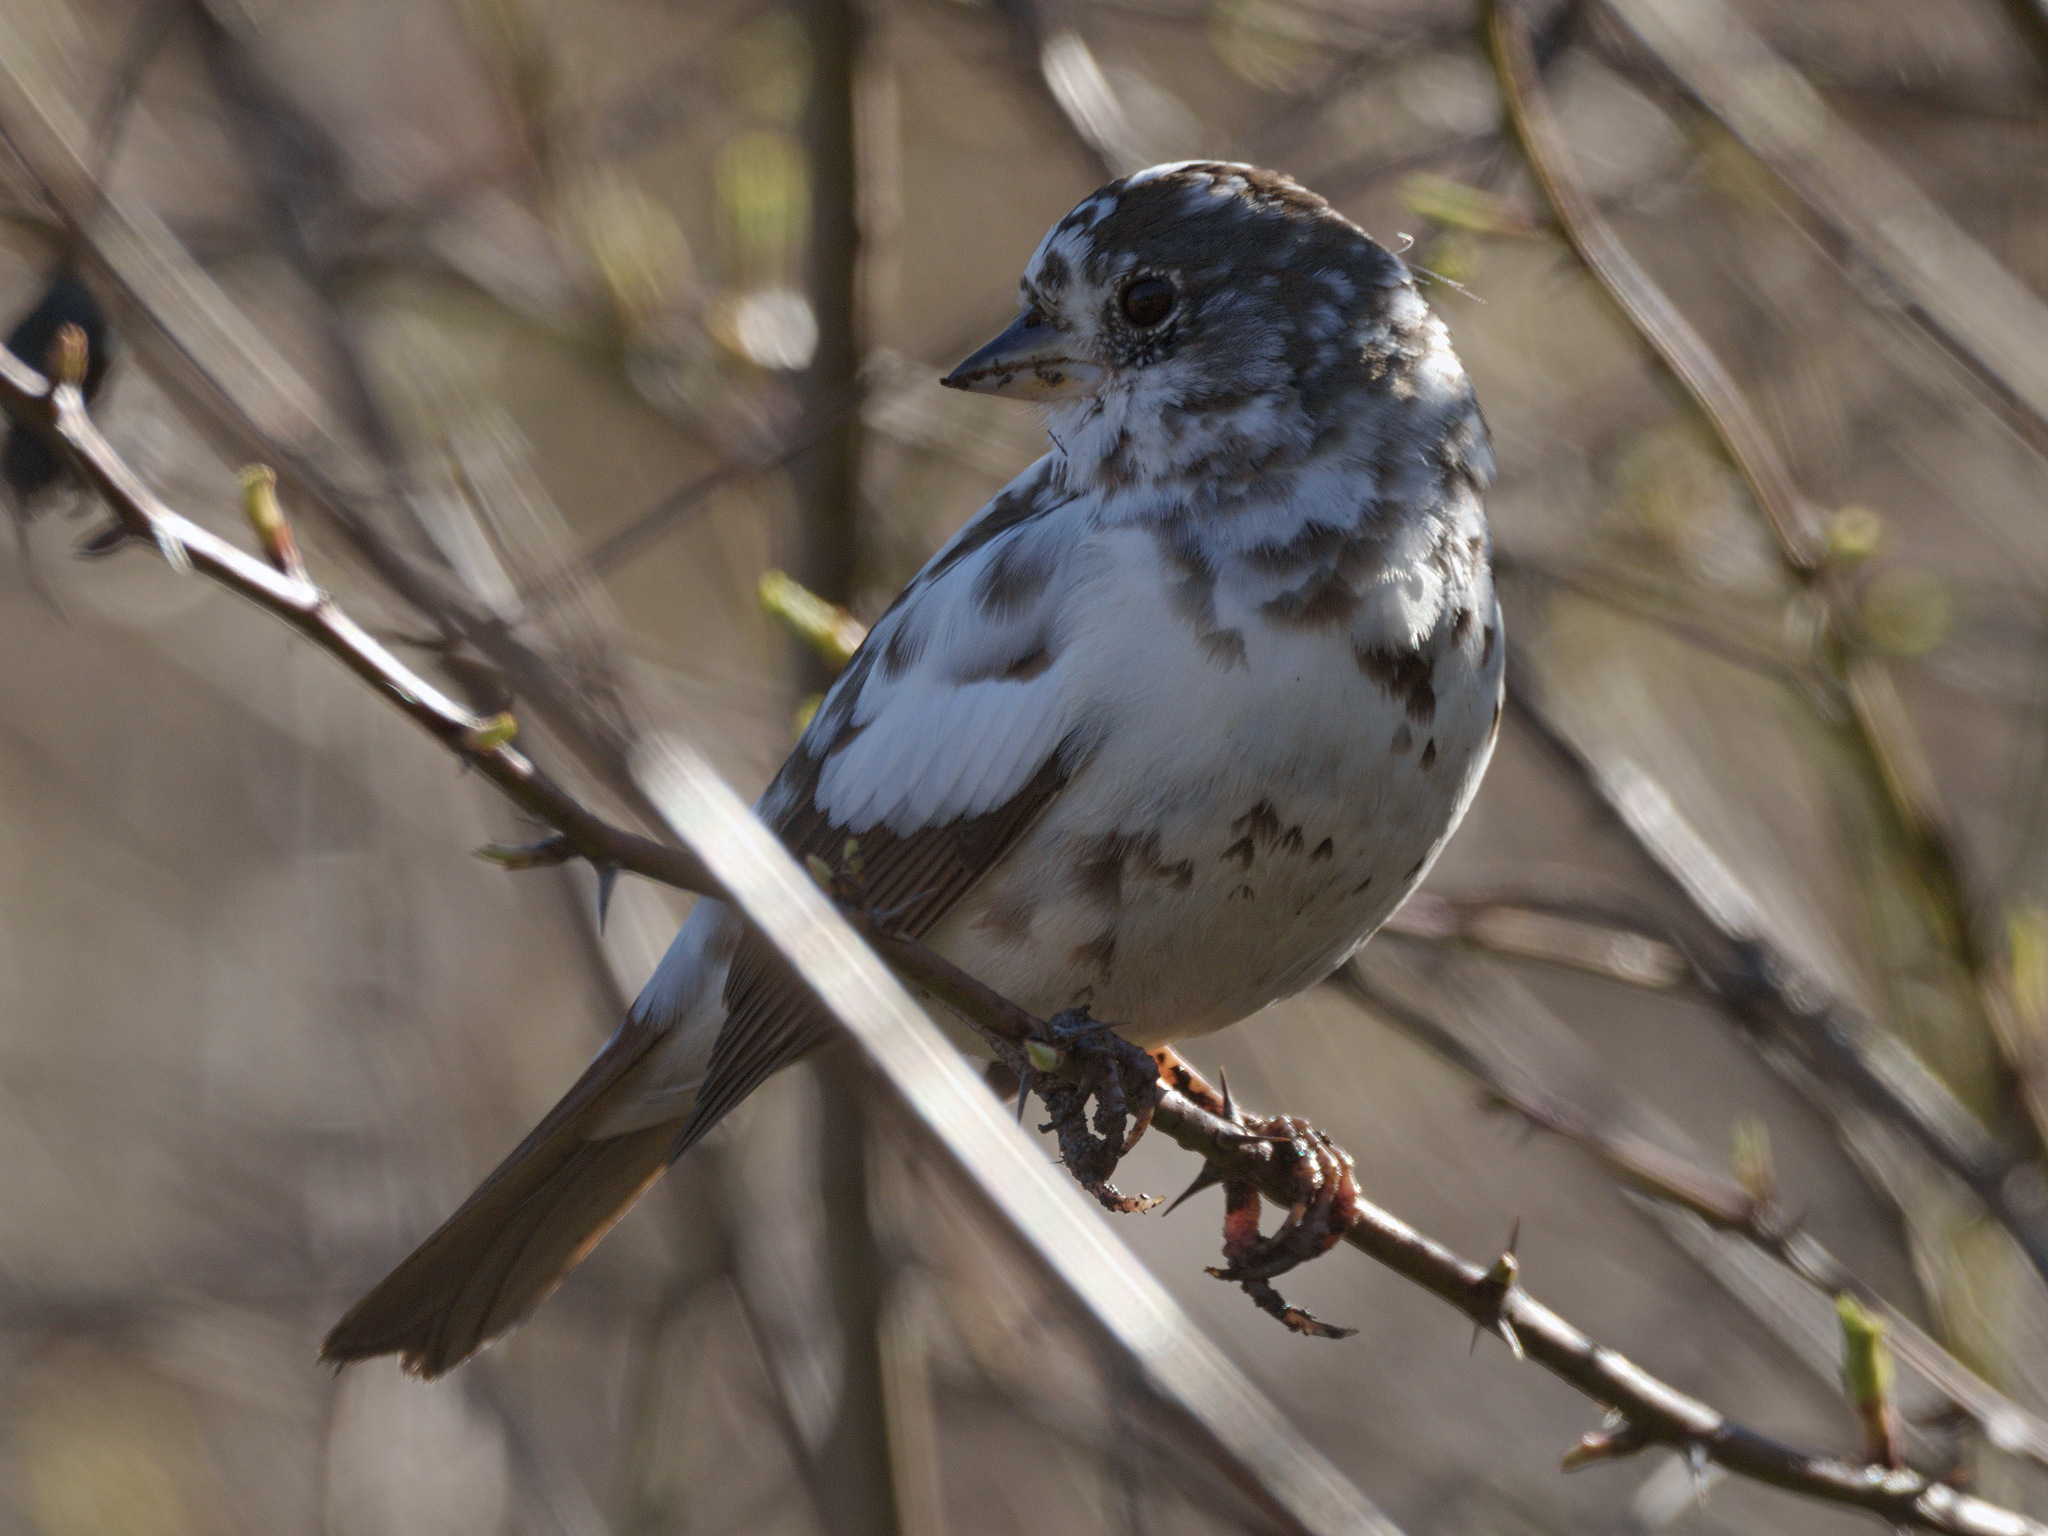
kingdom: Animalia
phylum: Chordata
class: Aves
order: Passeriformes
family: Passerellidae
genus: Passerella
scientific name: Passerella iliaca
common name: Fox sparrow
